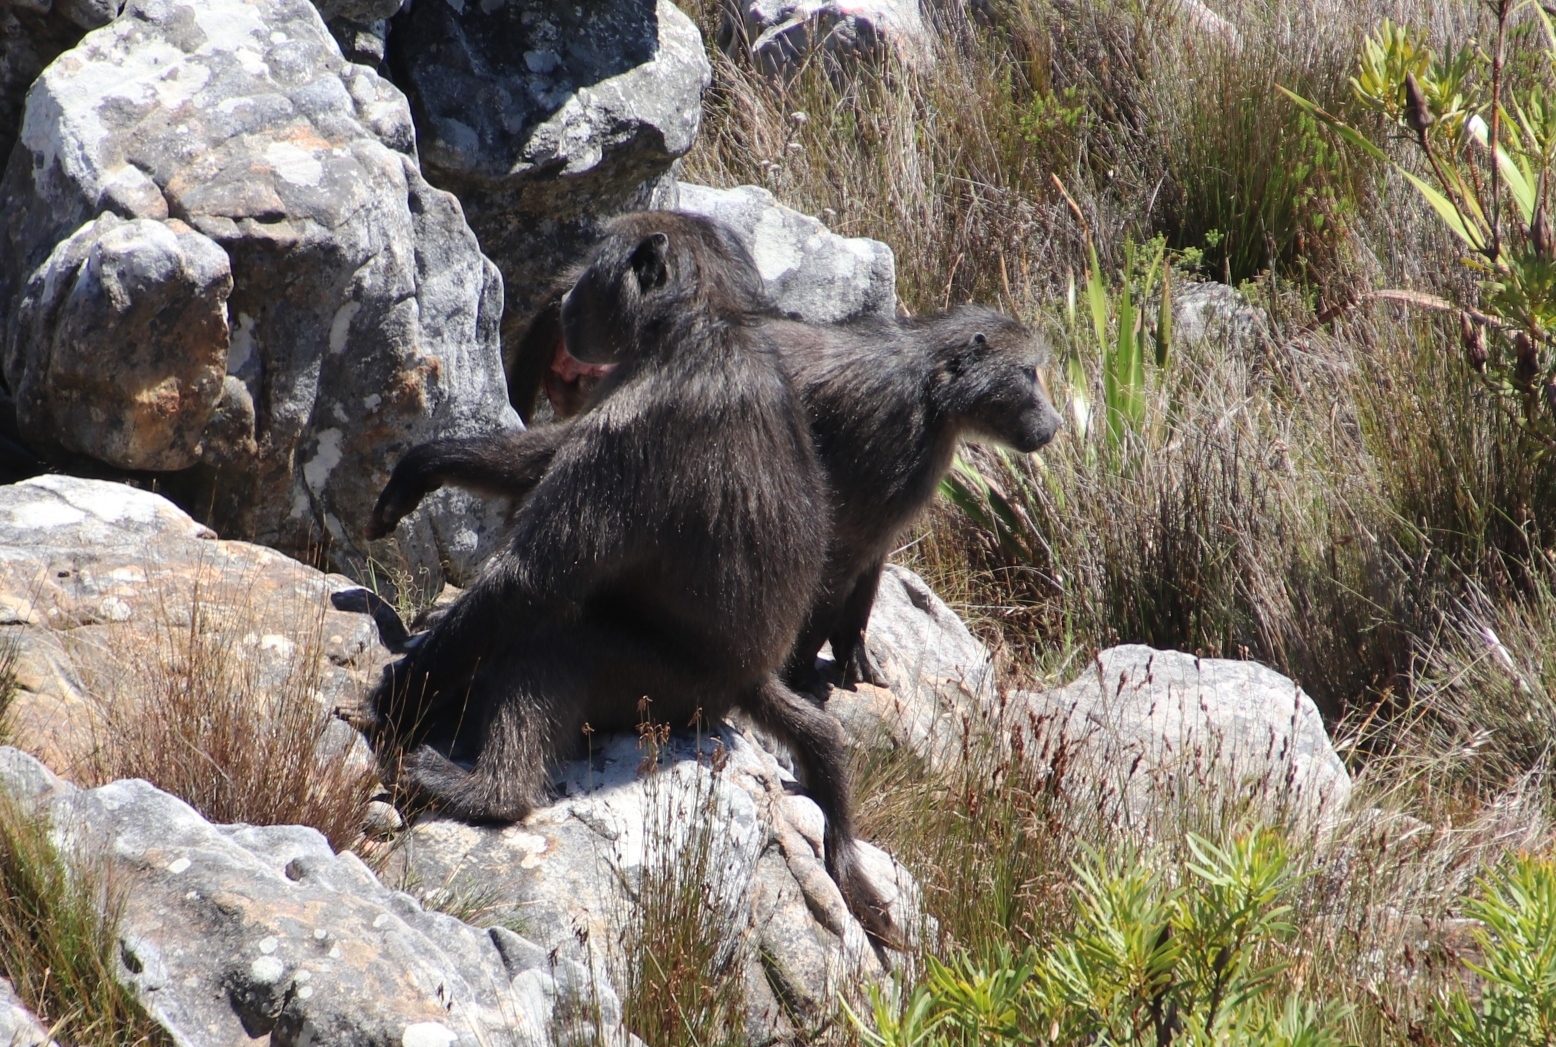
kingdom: Animalia
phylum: Chordata
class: Mammalia
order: Primates
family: Cercopithecidae
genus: Papio
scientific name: Papio ursinus
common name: Chacma baboon
